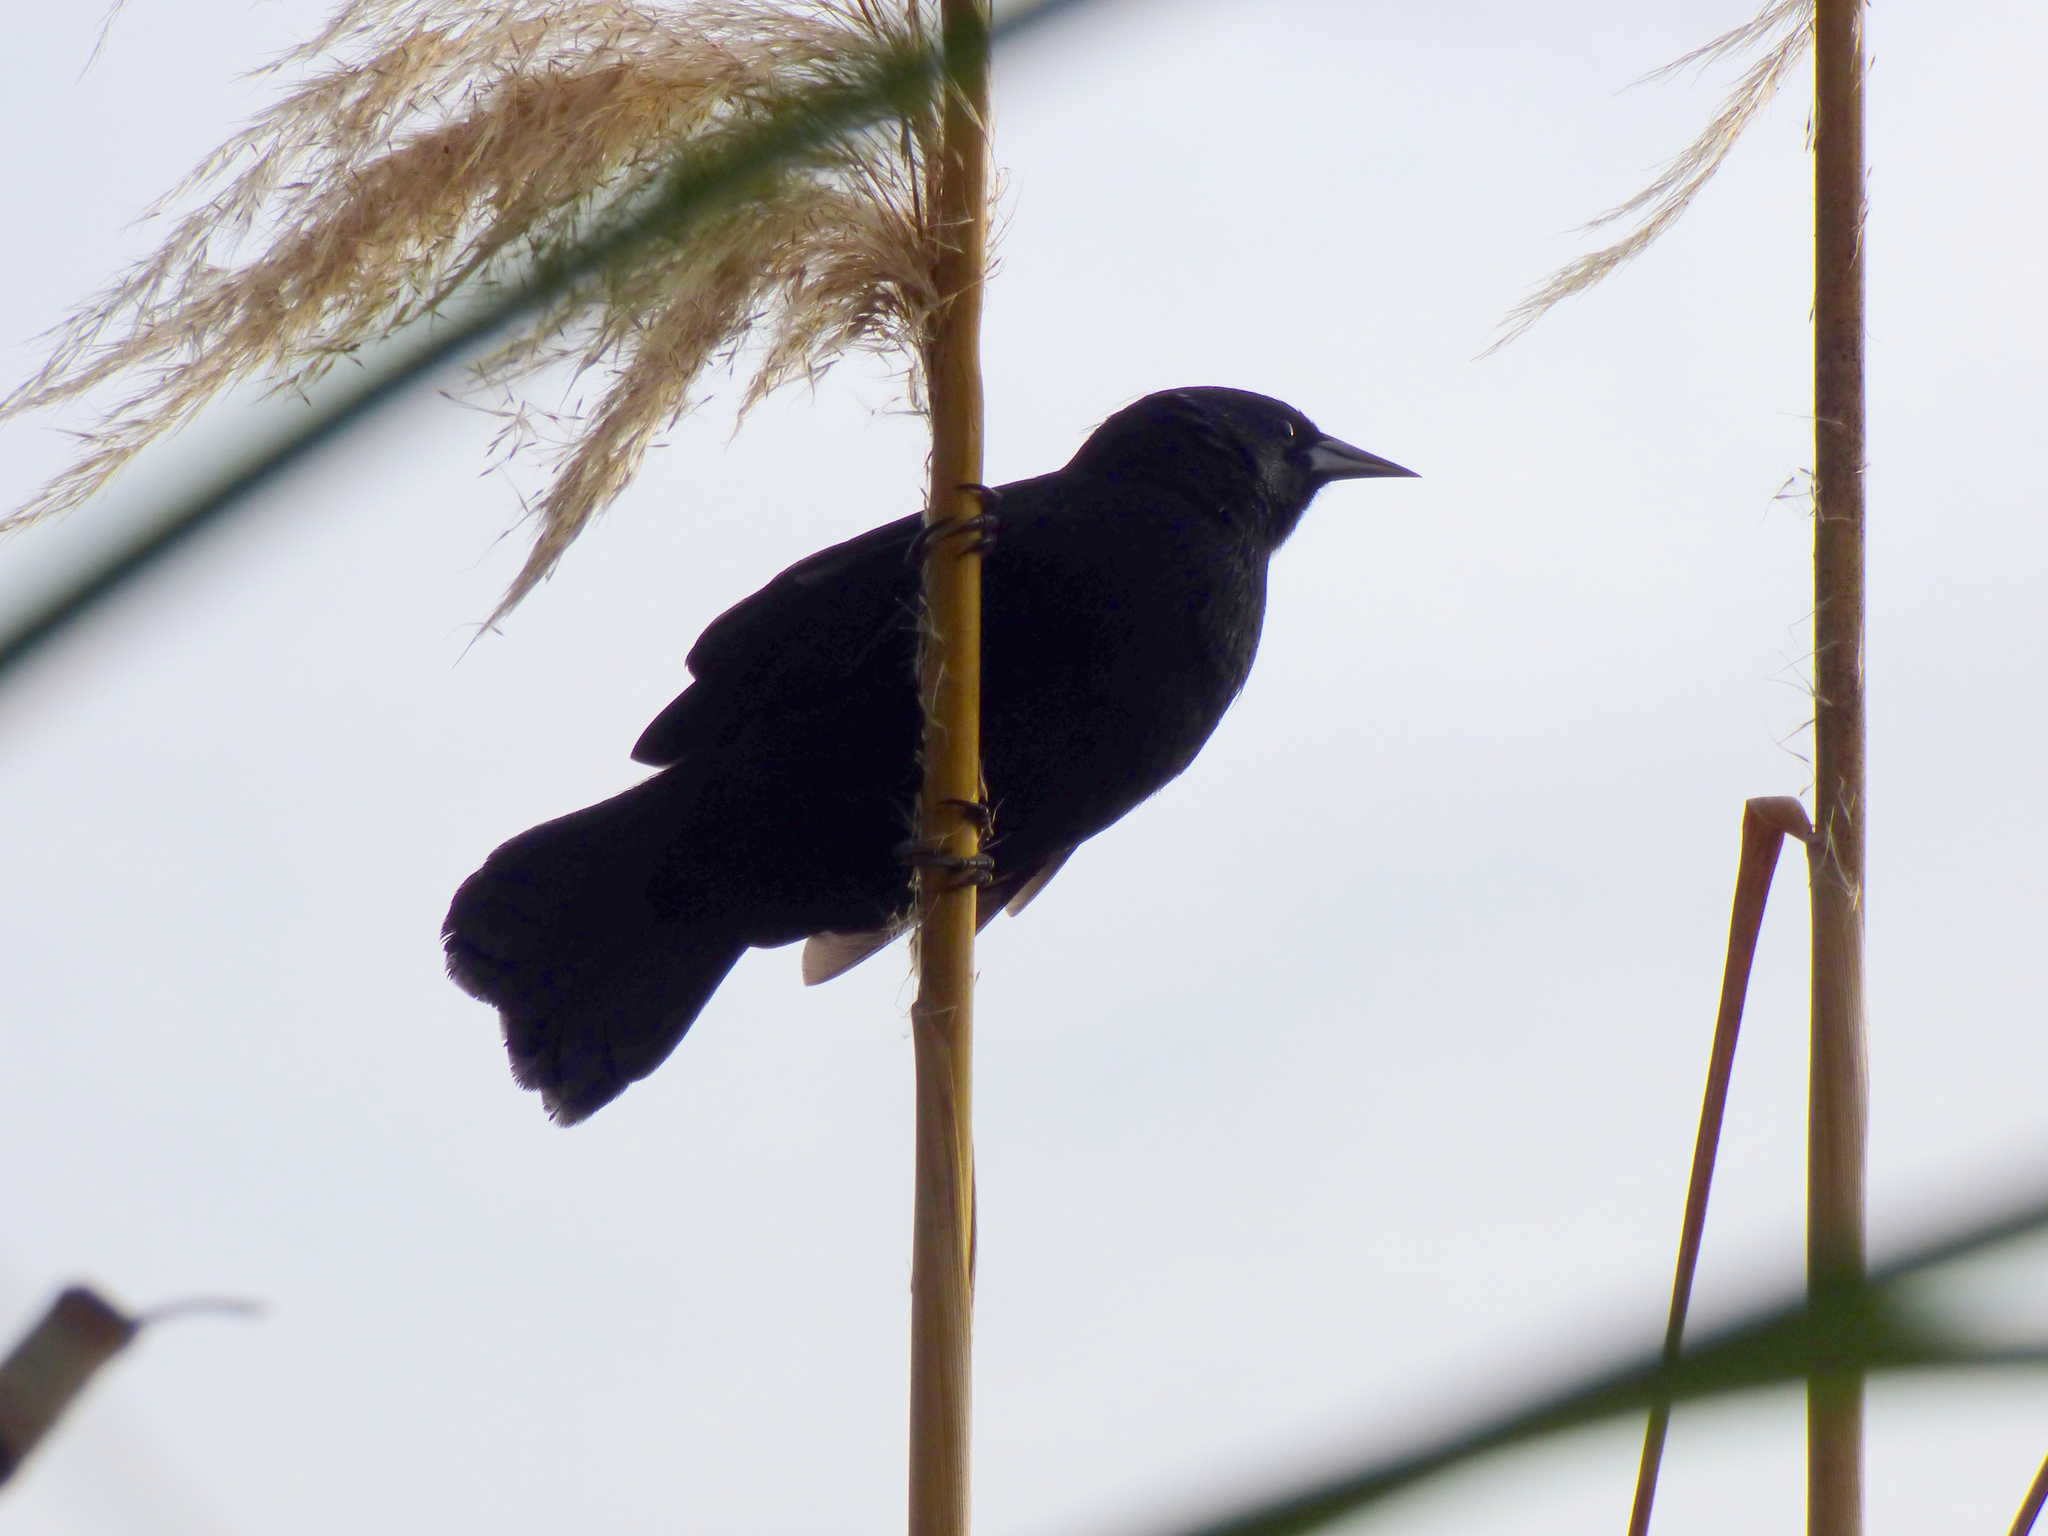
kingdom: Animalia
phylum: Chordata
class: Aves
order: Passeriformes
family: Icteridae
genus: Agelasticus
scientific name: Agelasticus cyanopus
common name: Unicolored blackbird
